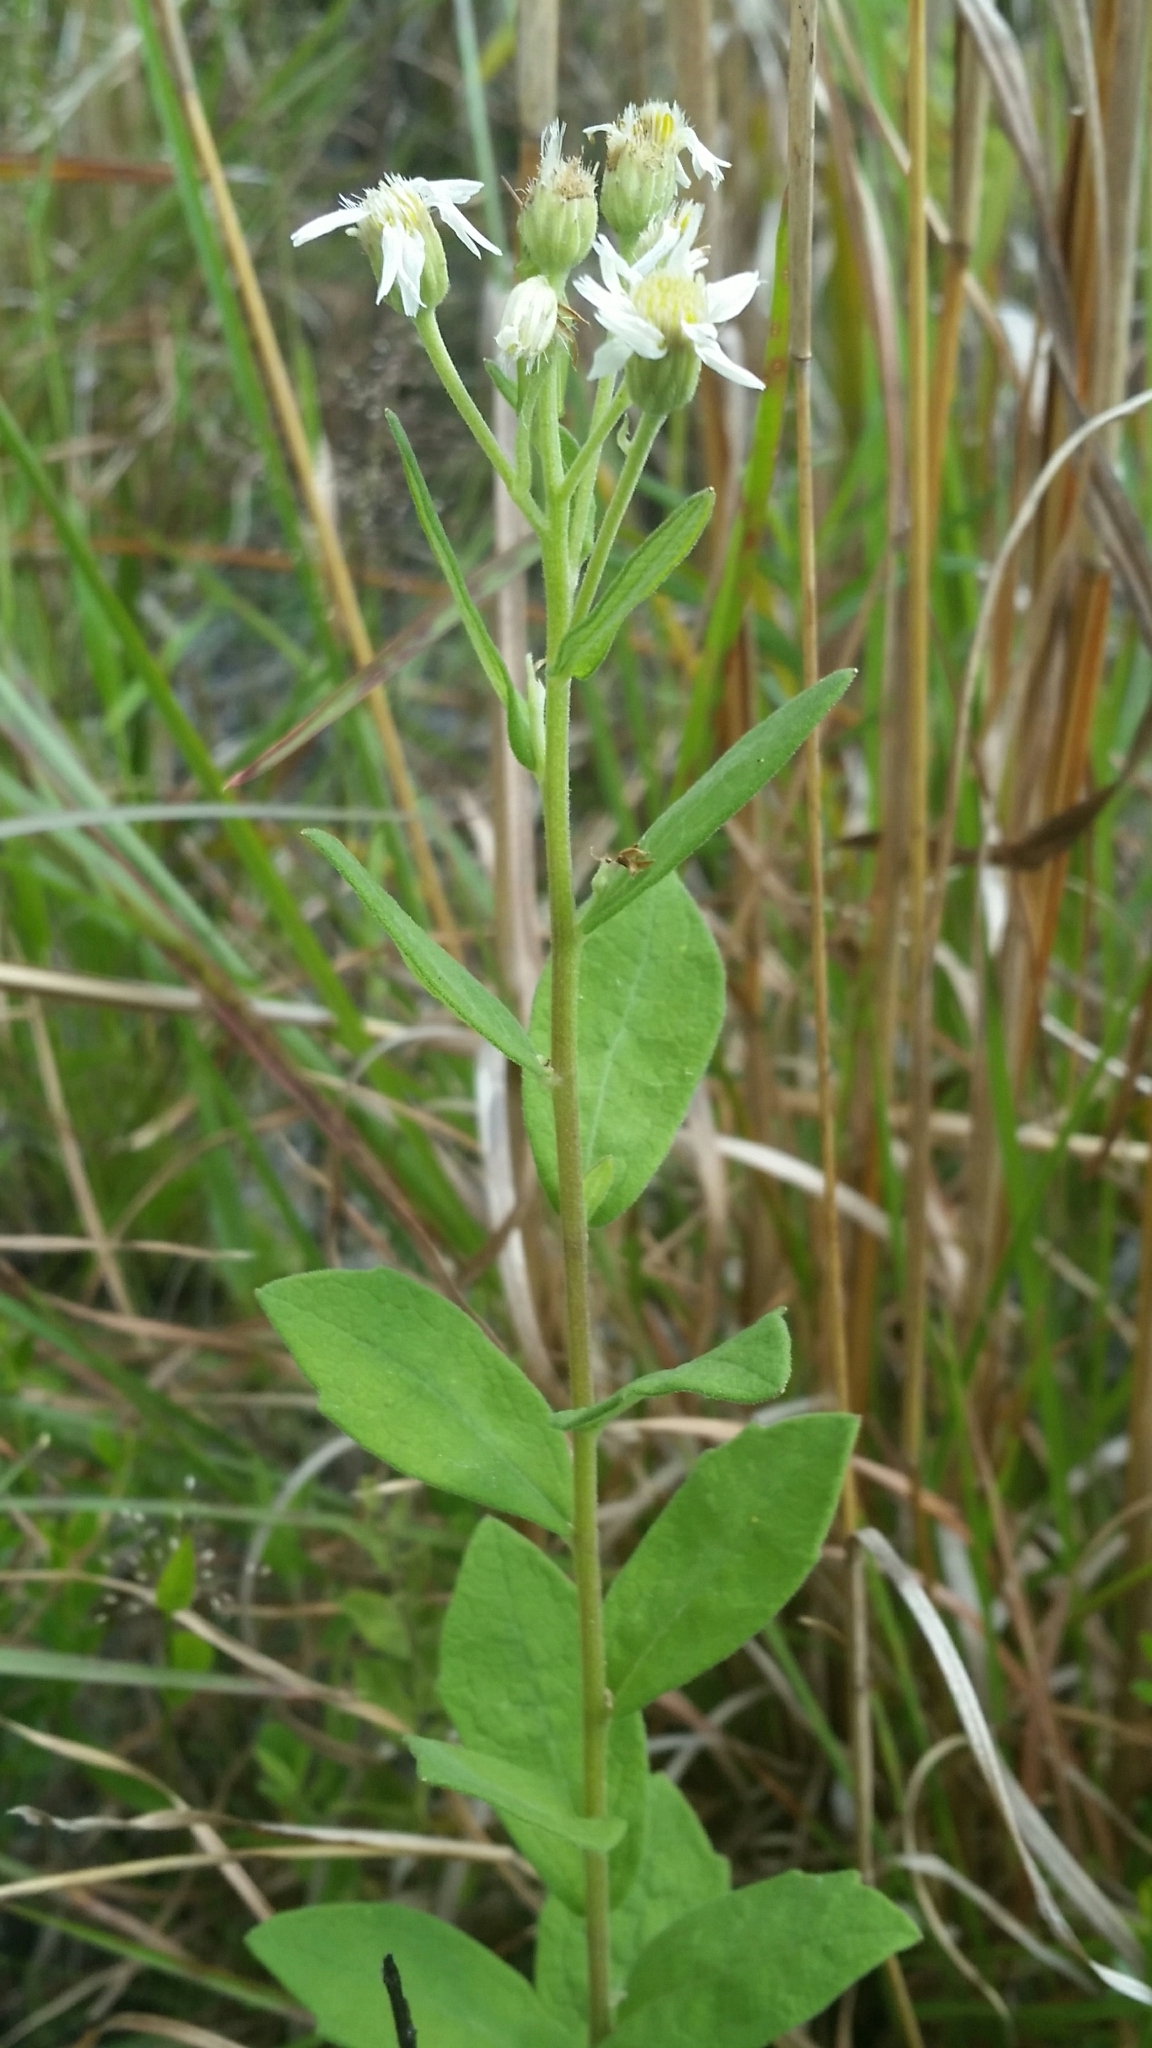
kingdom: Plantae
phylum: Tracheophyta
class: Magnoliopsida
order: Asterales
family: Asteraceae
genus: Oclemena
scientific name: Oclemena reticulata
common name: Pinebarren aster
